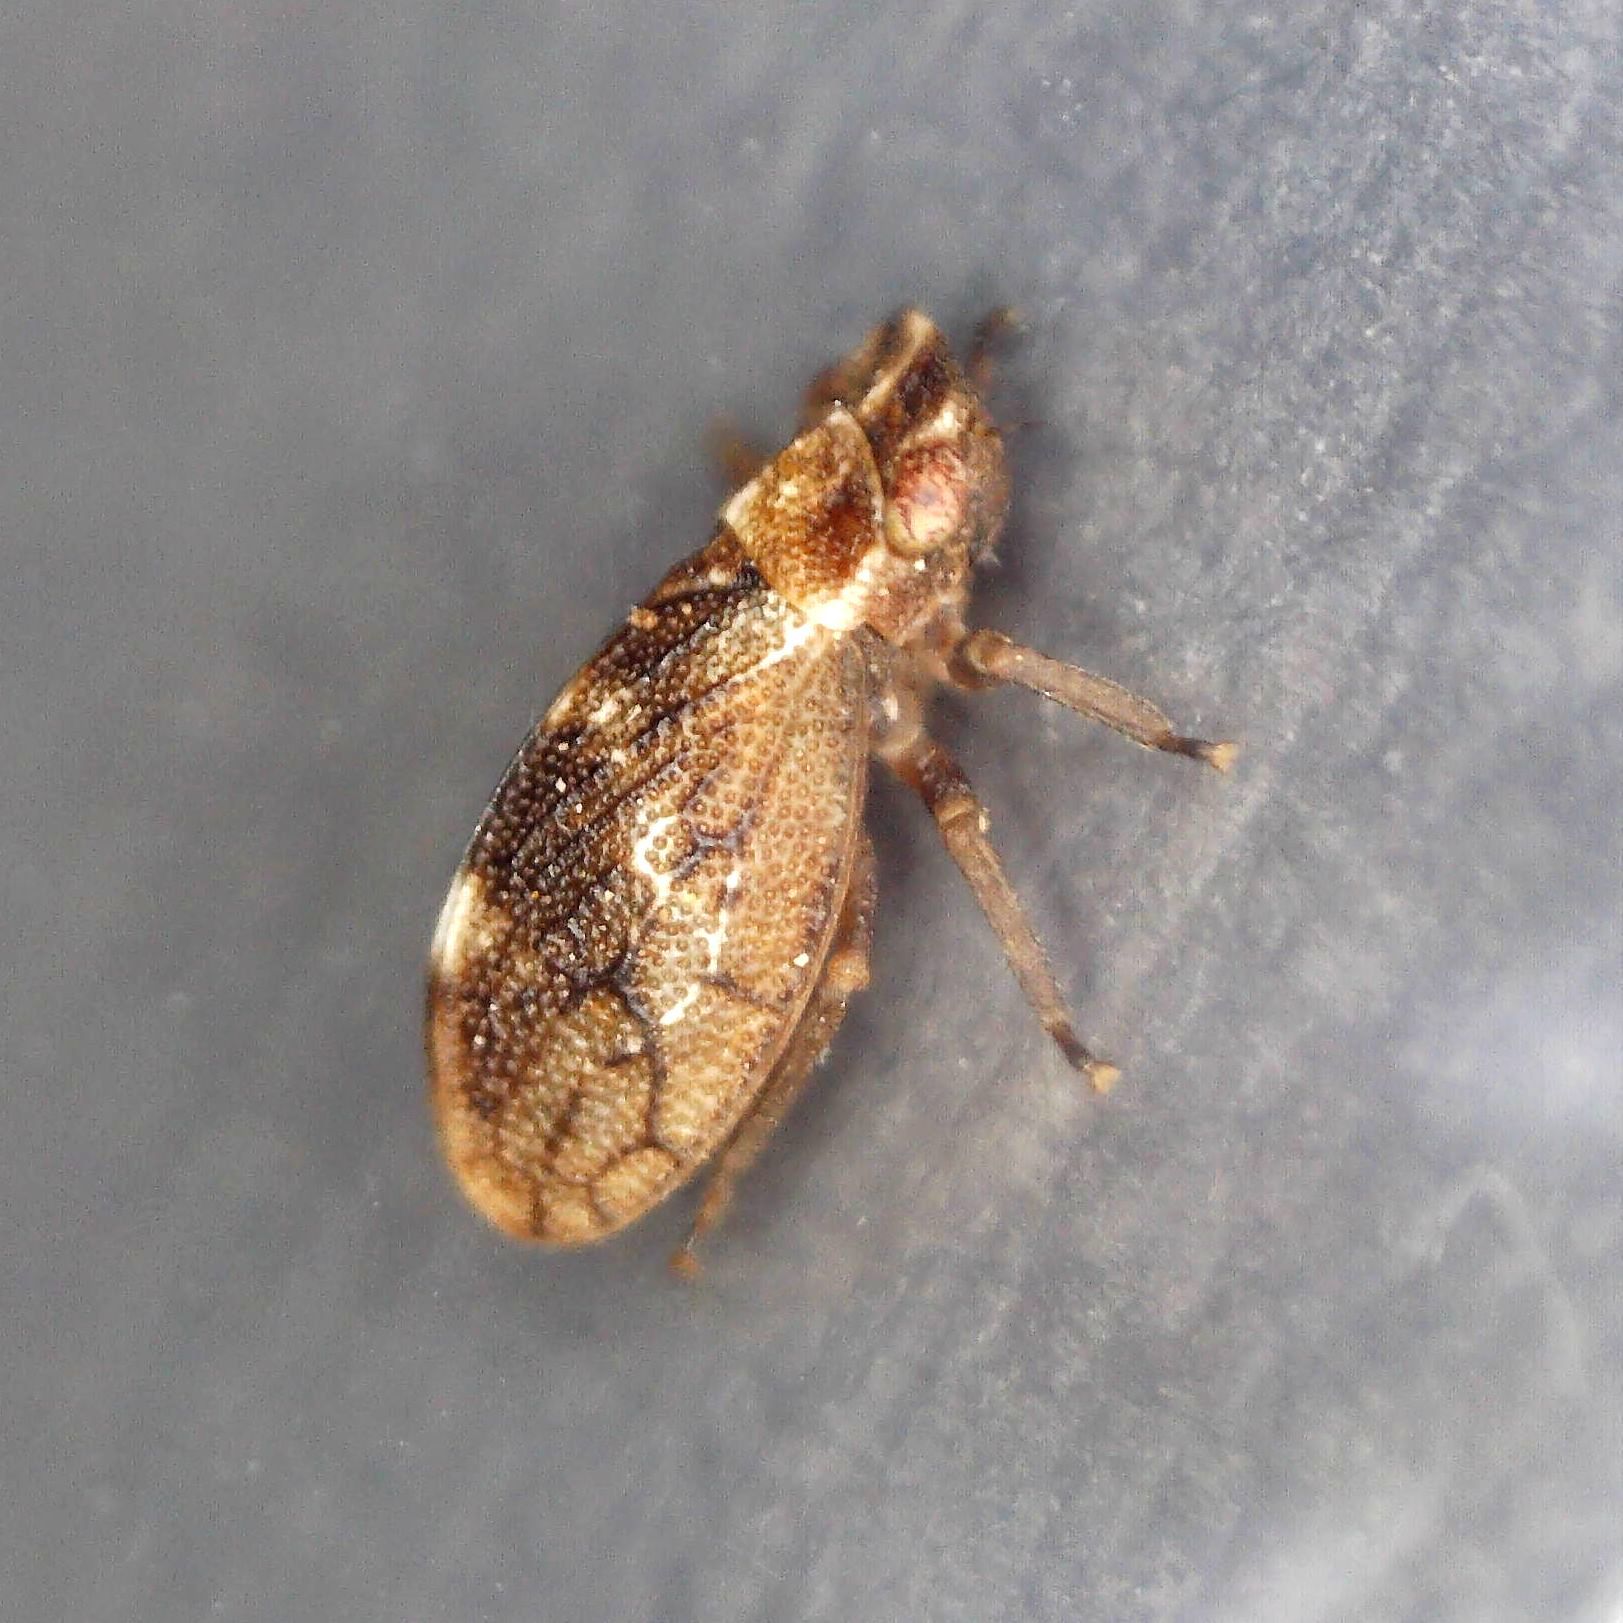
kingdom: Animalia
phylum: Arthropoda
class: Insecta
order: Hemiptera
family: Cicadellidae
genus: Ulopa
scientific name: Ulopa reticulata
